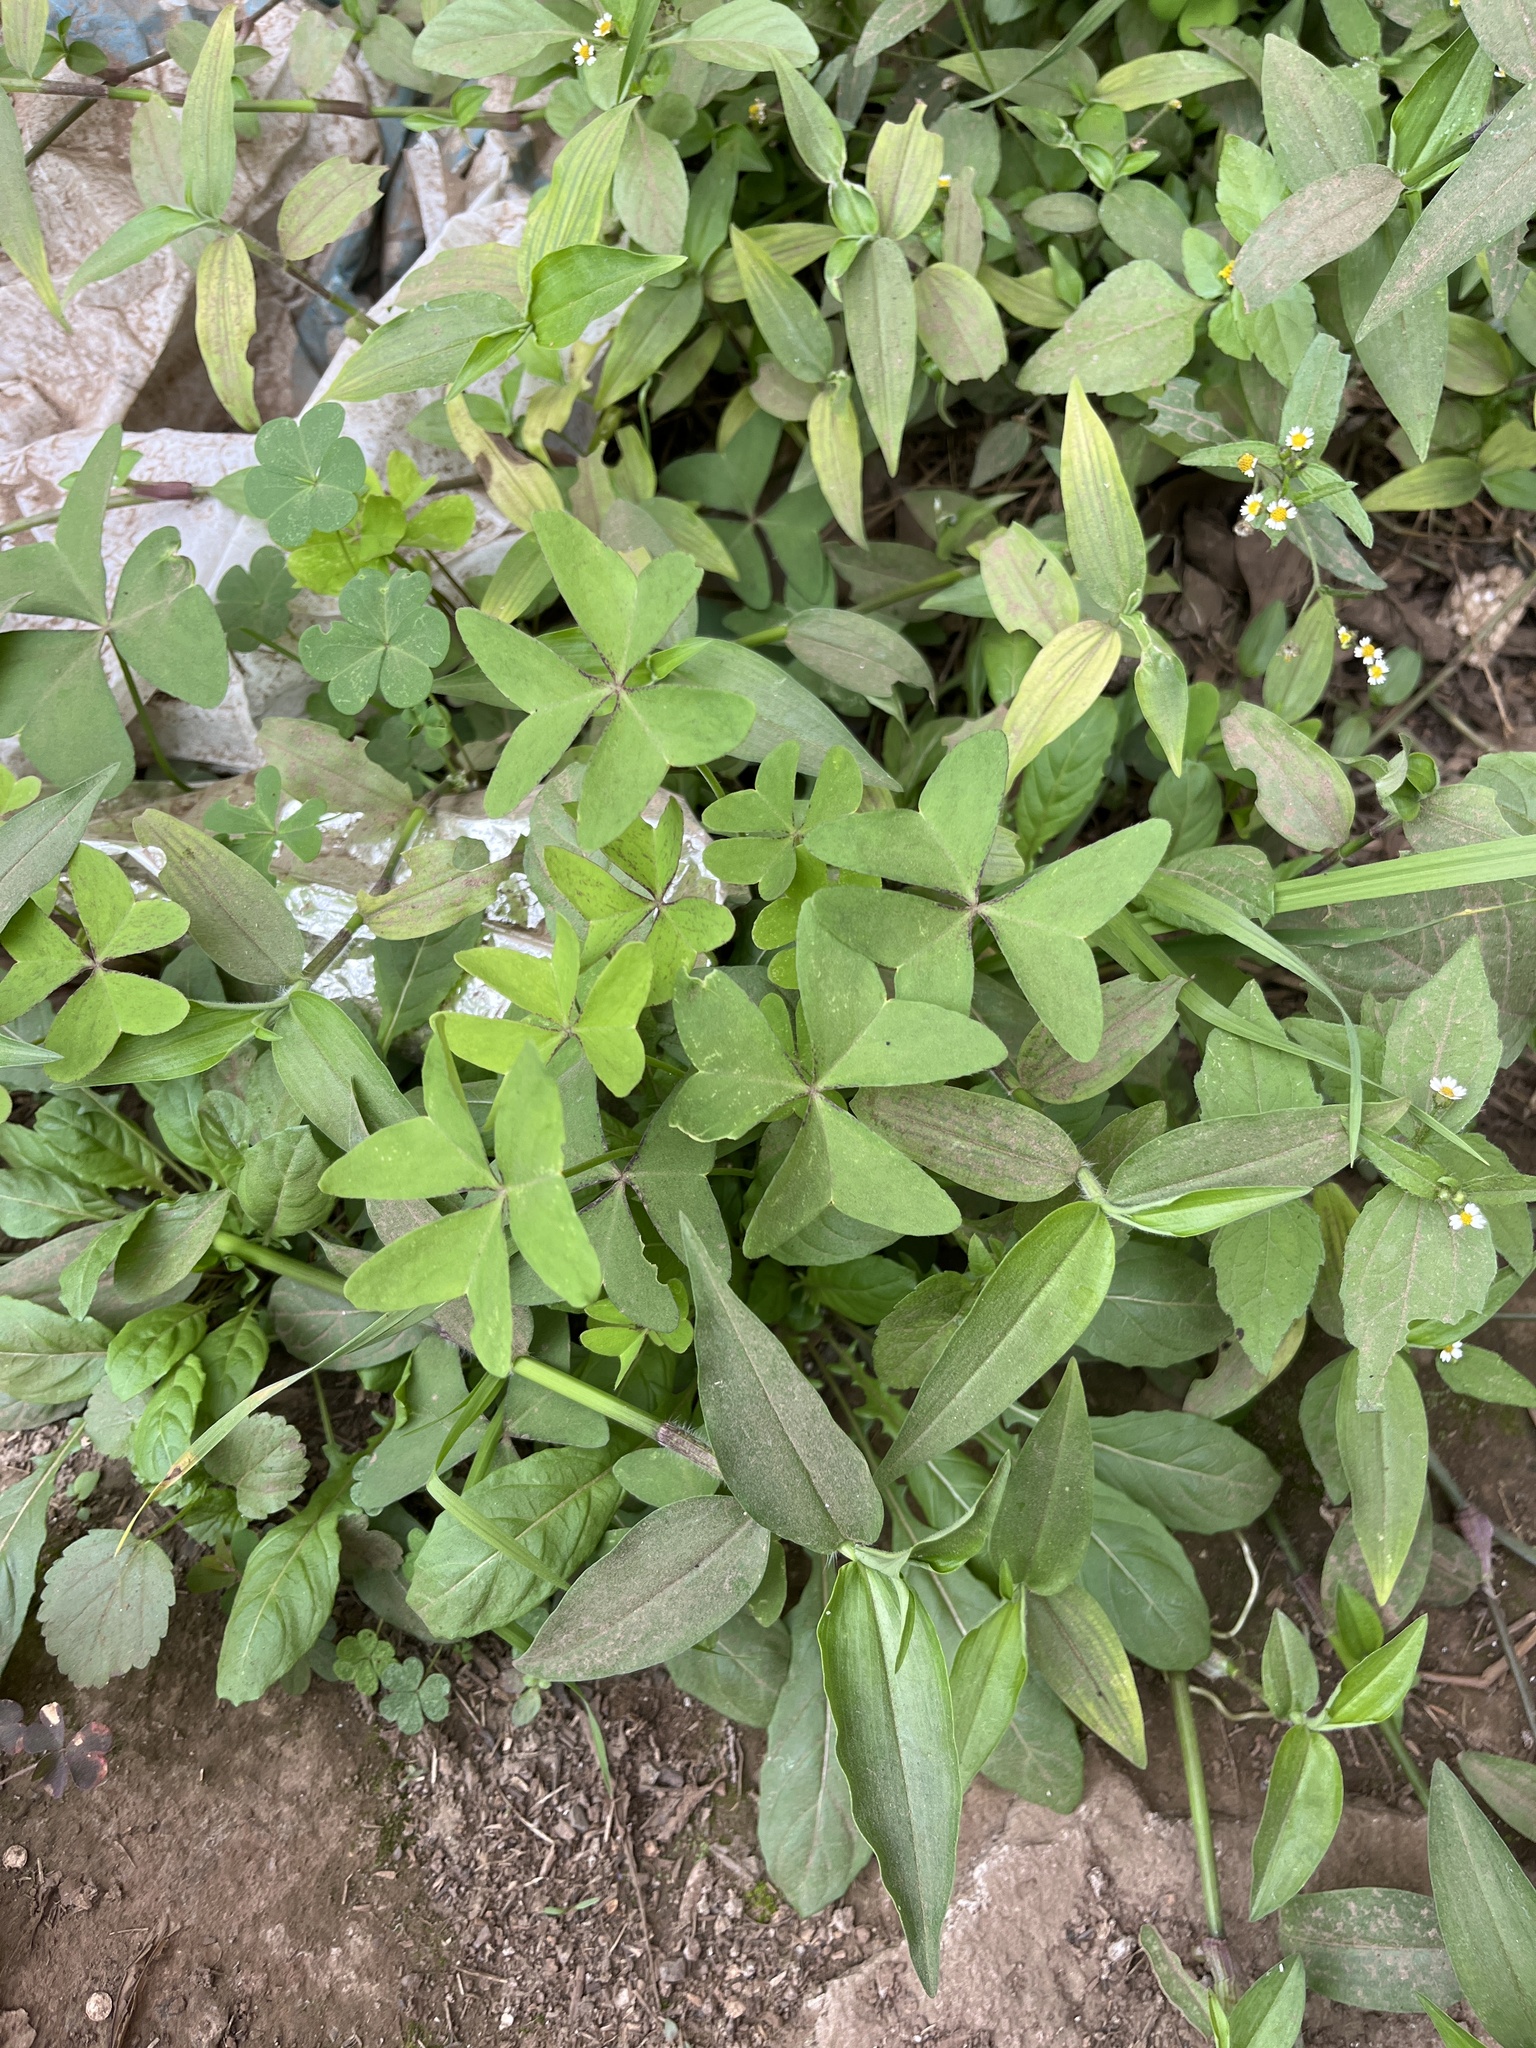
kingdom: Plantae
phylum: Tracheophyta
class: Magnoliopsida
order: Oxalidales
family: Oxalidaceae
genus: Oxalis
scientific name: Oxalis latifolia
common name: Garden pink-sorrel
